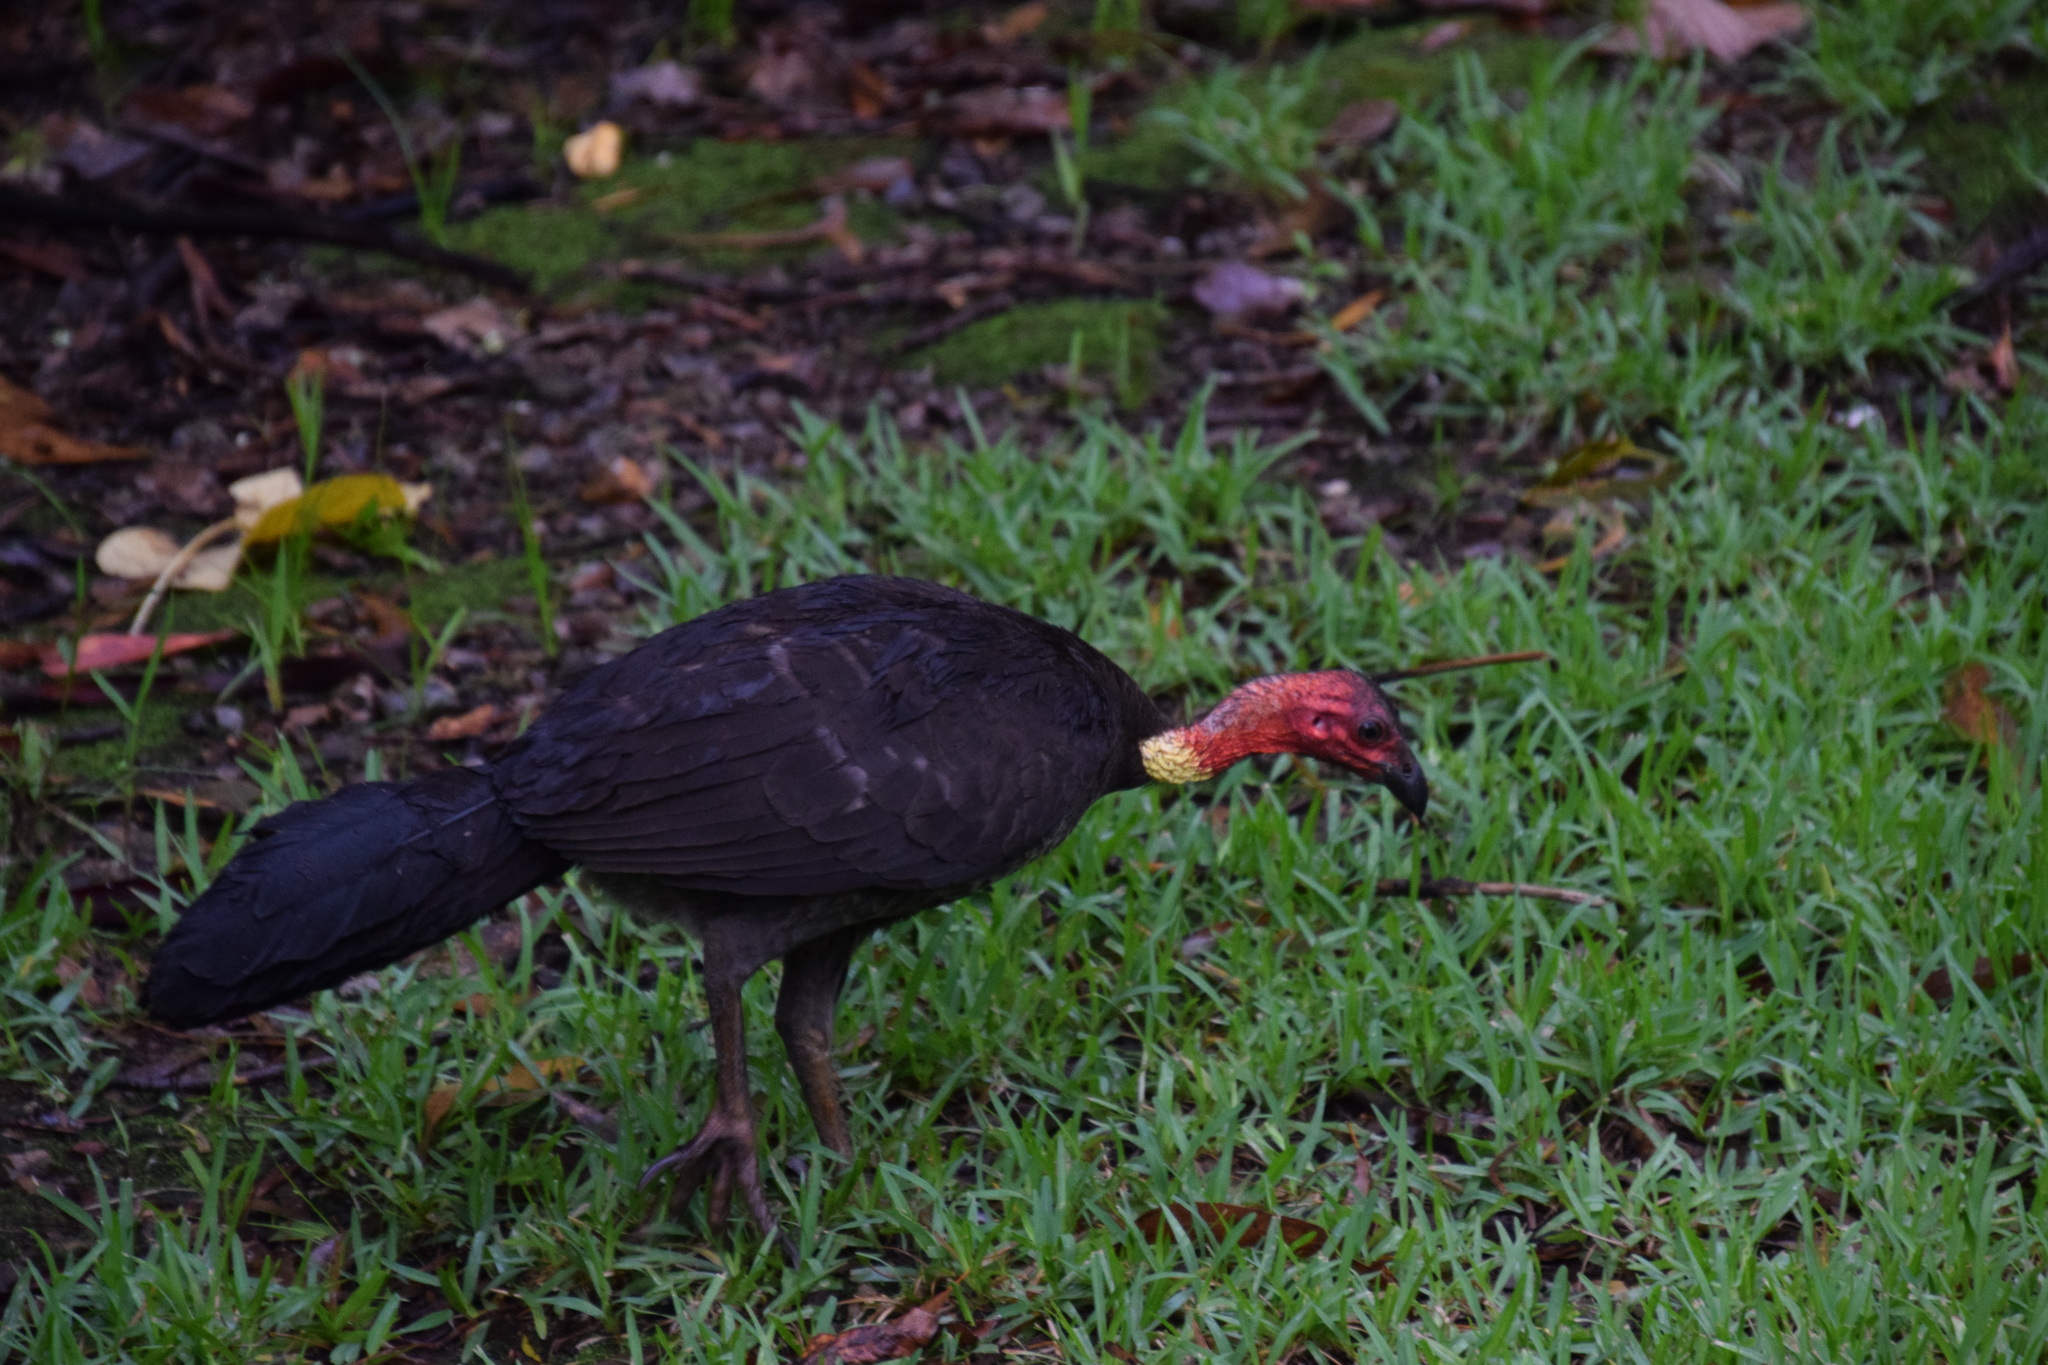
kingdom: Animalia
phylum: Chordata
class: Aves
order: Galliformes
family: Megapodiidae
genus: Alectura
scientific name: Alectura lathami
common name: Australian brushturkey
